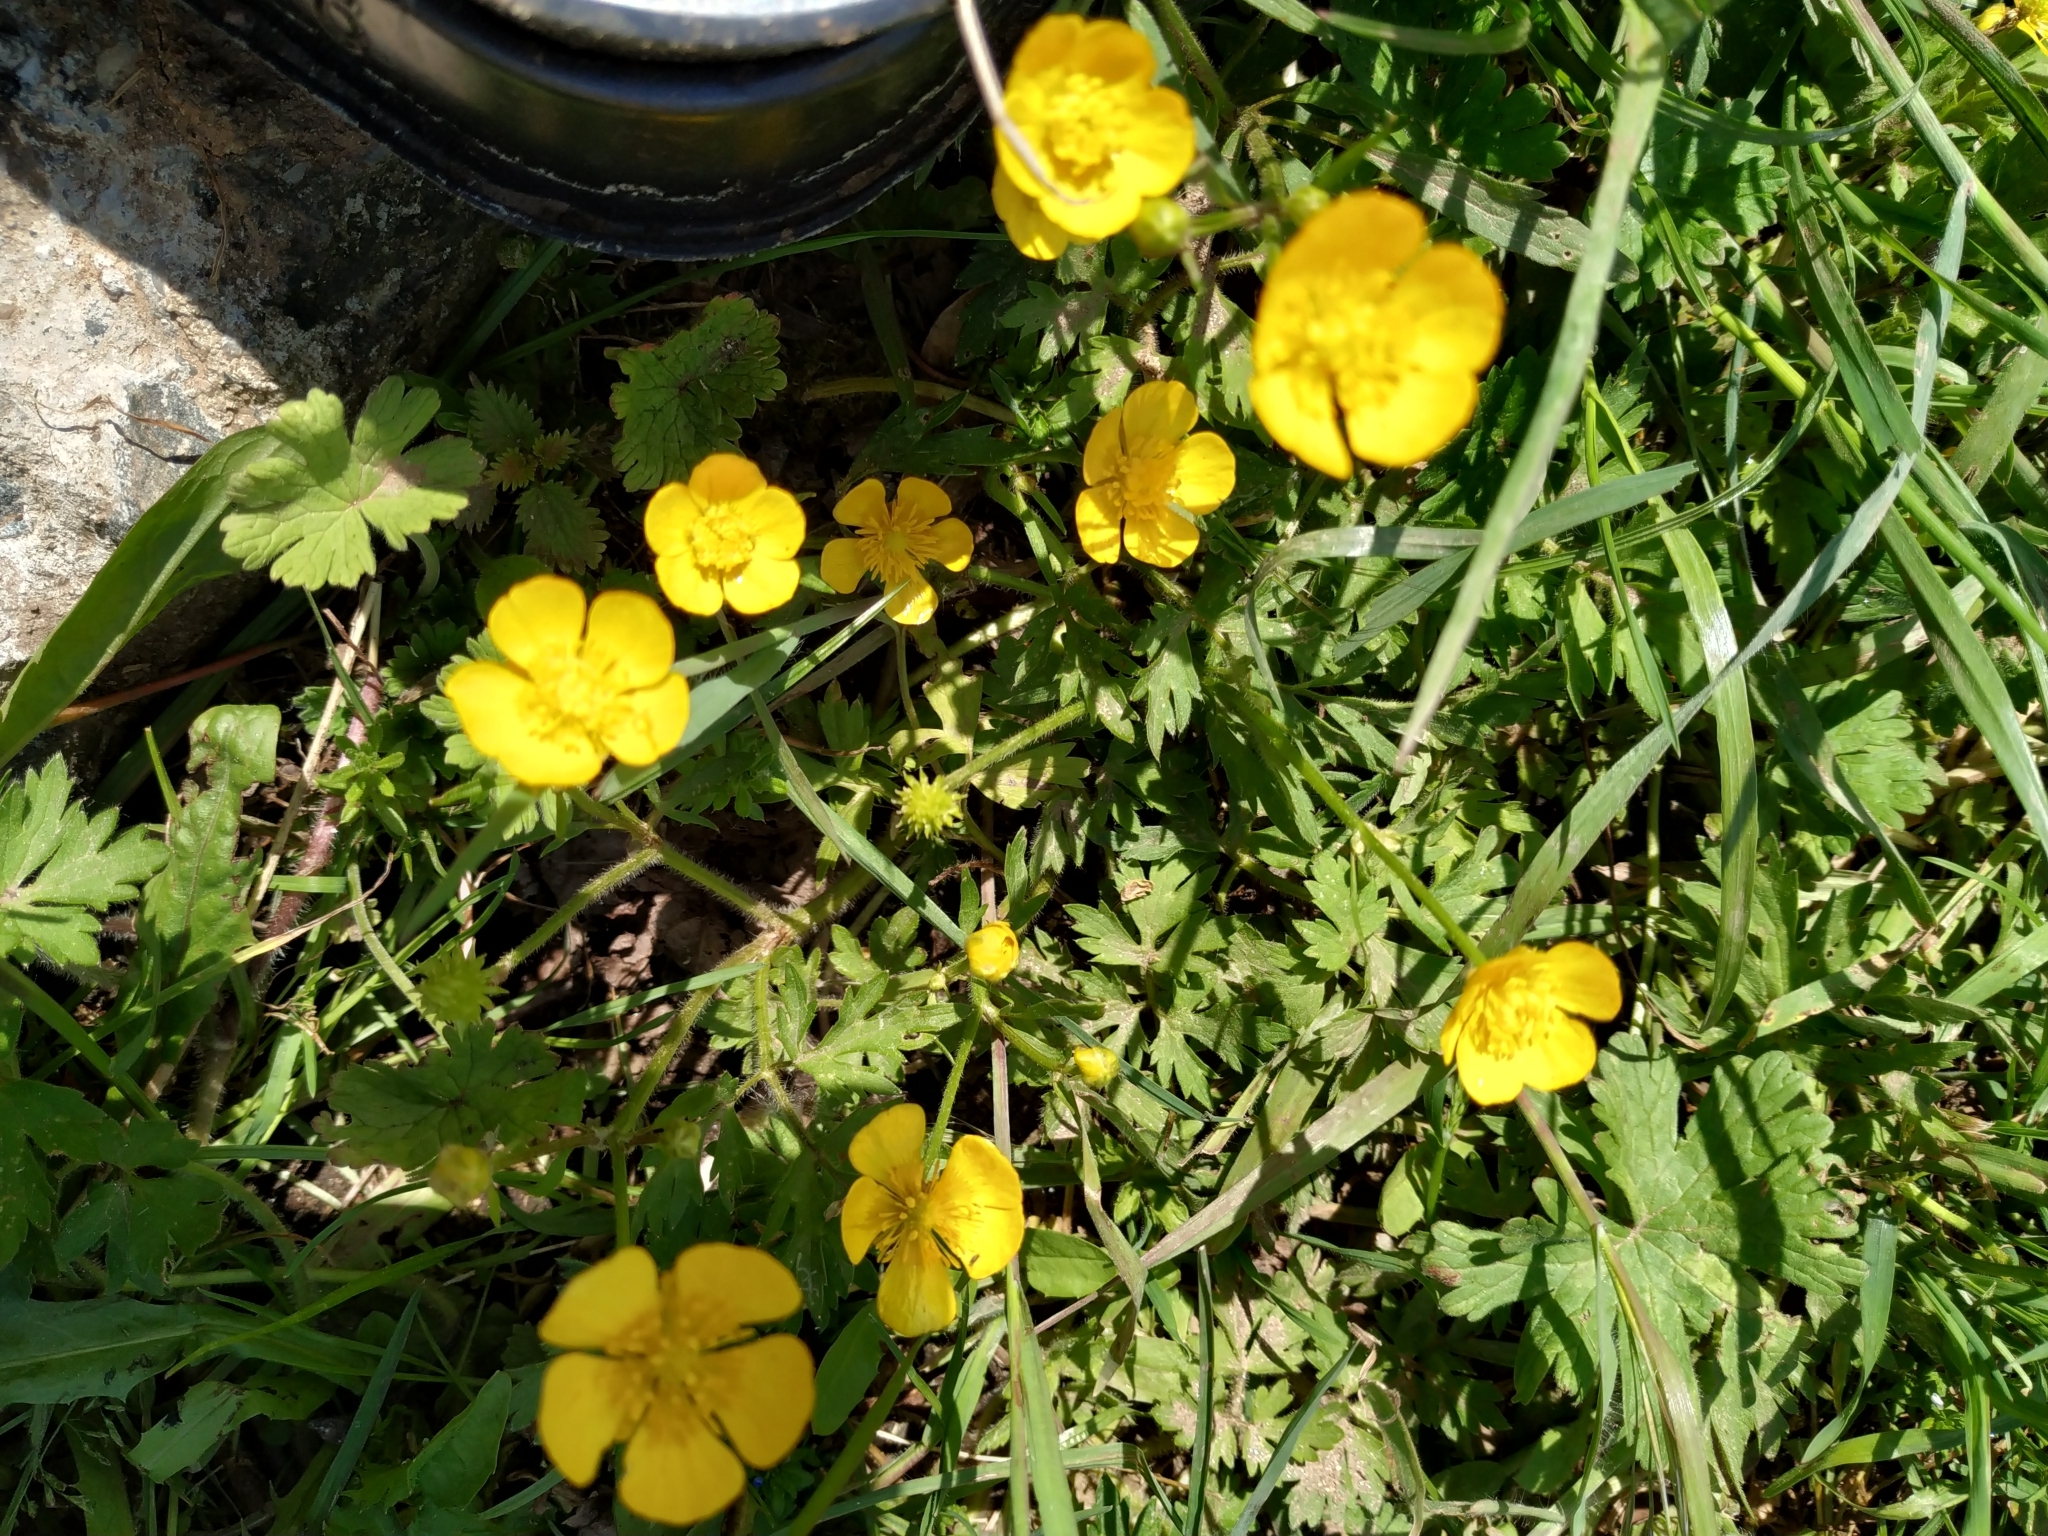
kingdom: Plantae
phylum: Tracheophyta
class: Magnoliopsida
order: Ranunculales
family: Ranunculaceae
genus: Ranunculus
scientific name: Ranunculus repens
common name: Creeping buttercup
